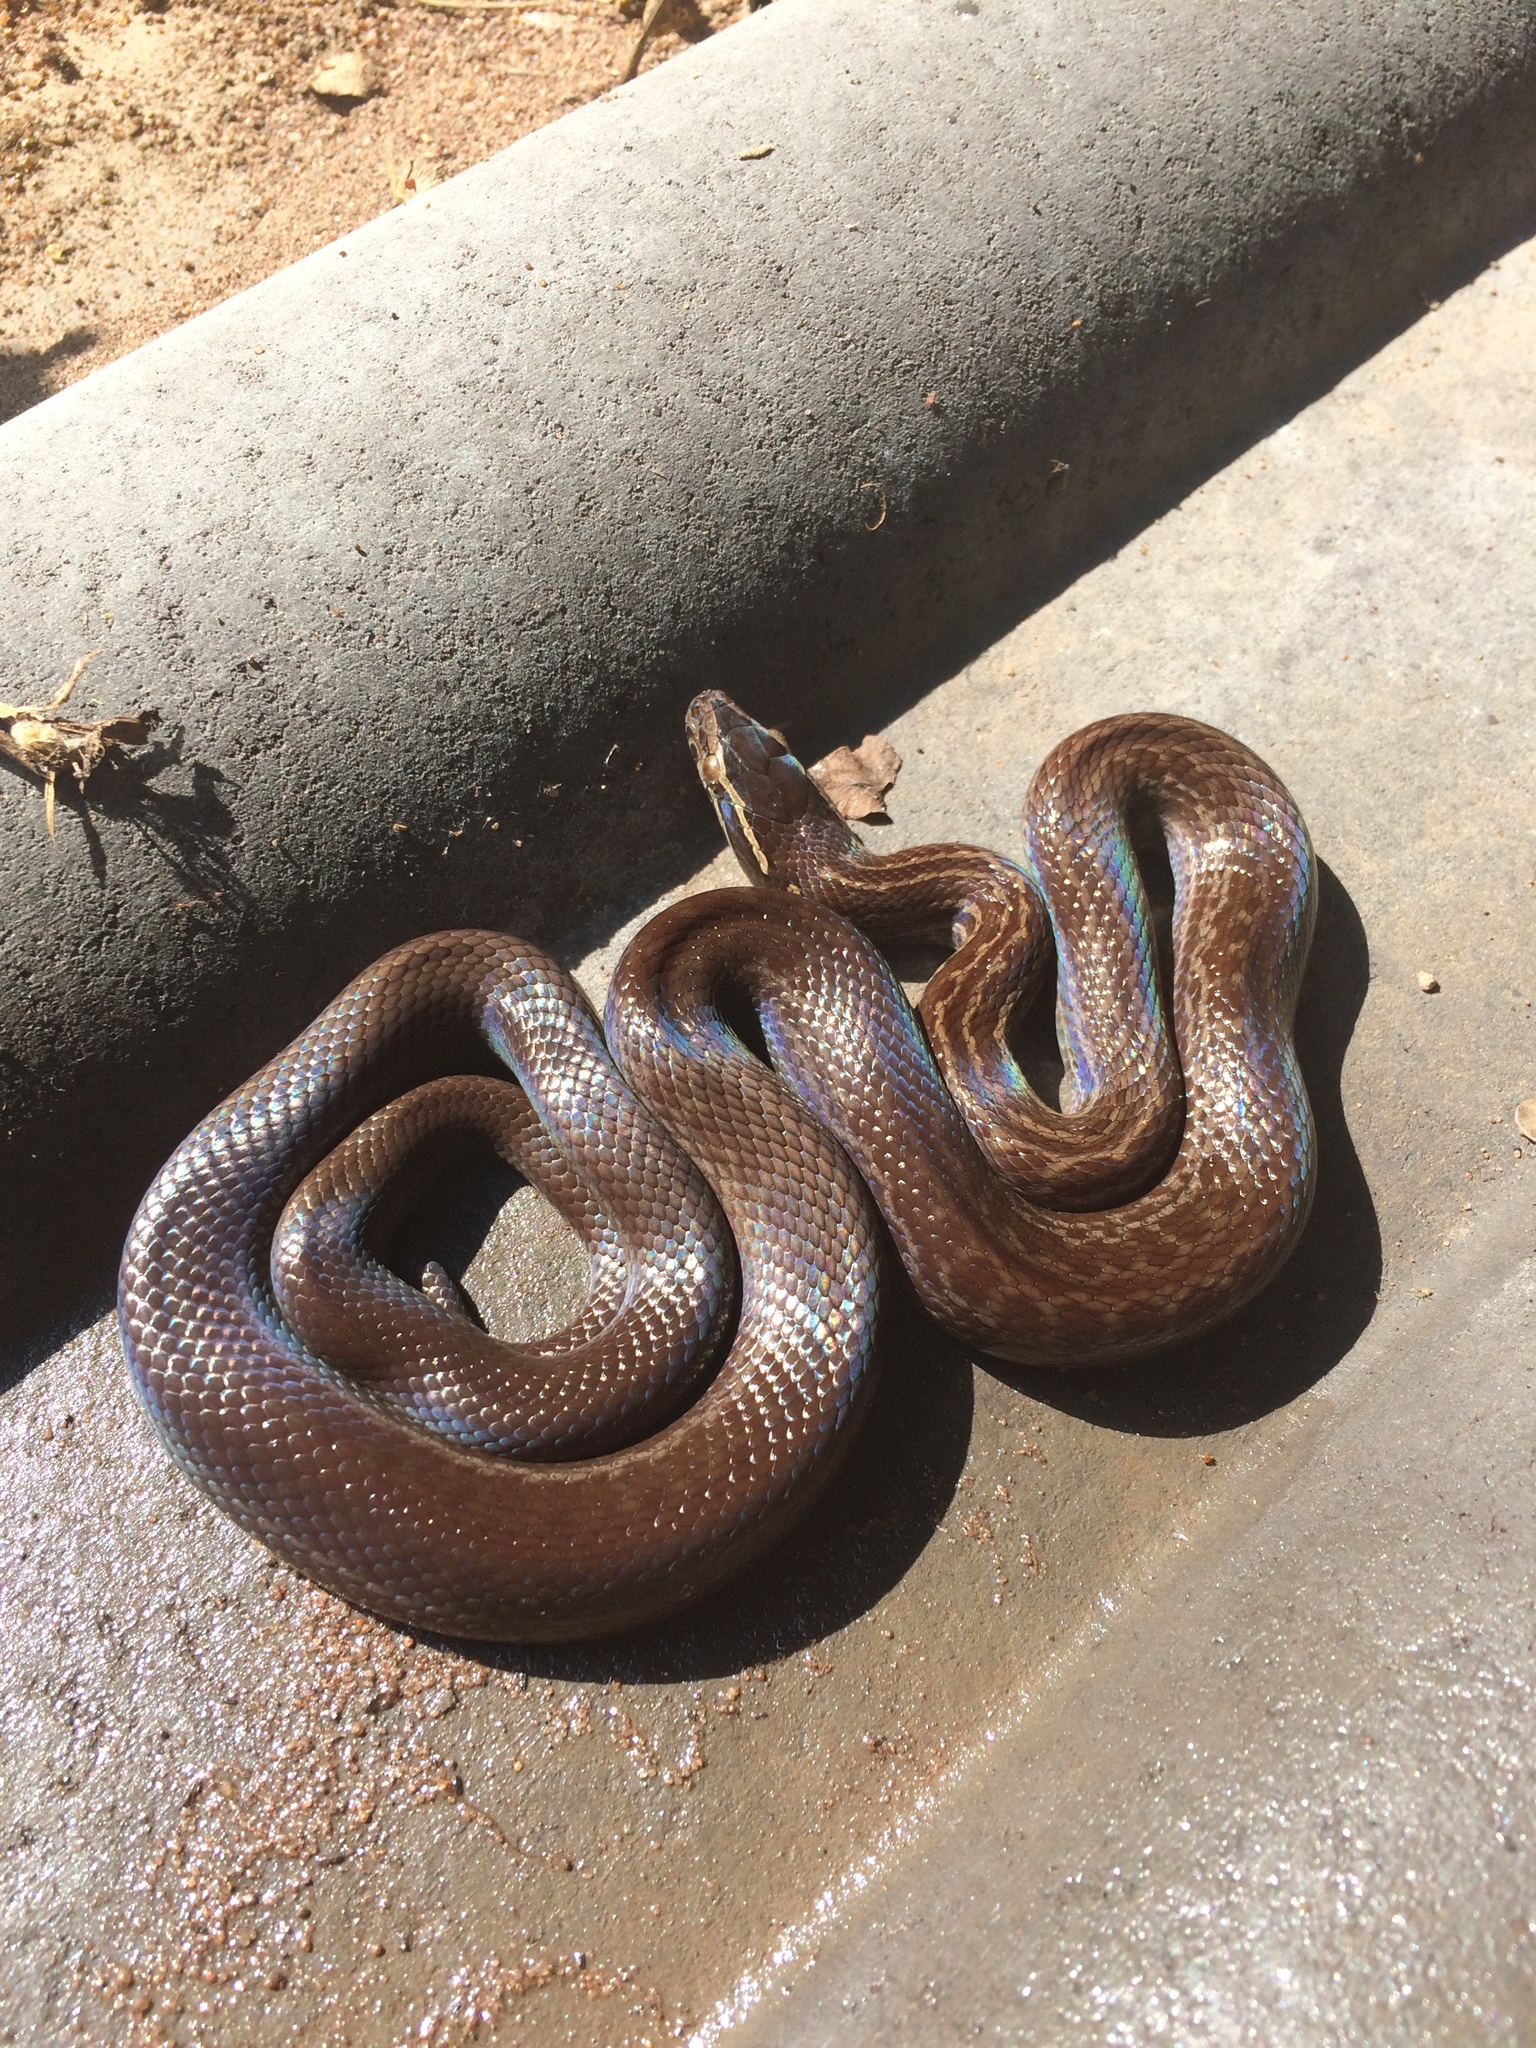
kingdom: Animalia
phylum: Chordata
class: Squamata
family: Lamprophiidae
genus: Boaedon
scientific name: Boaedon capensis
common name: Brown house snake
